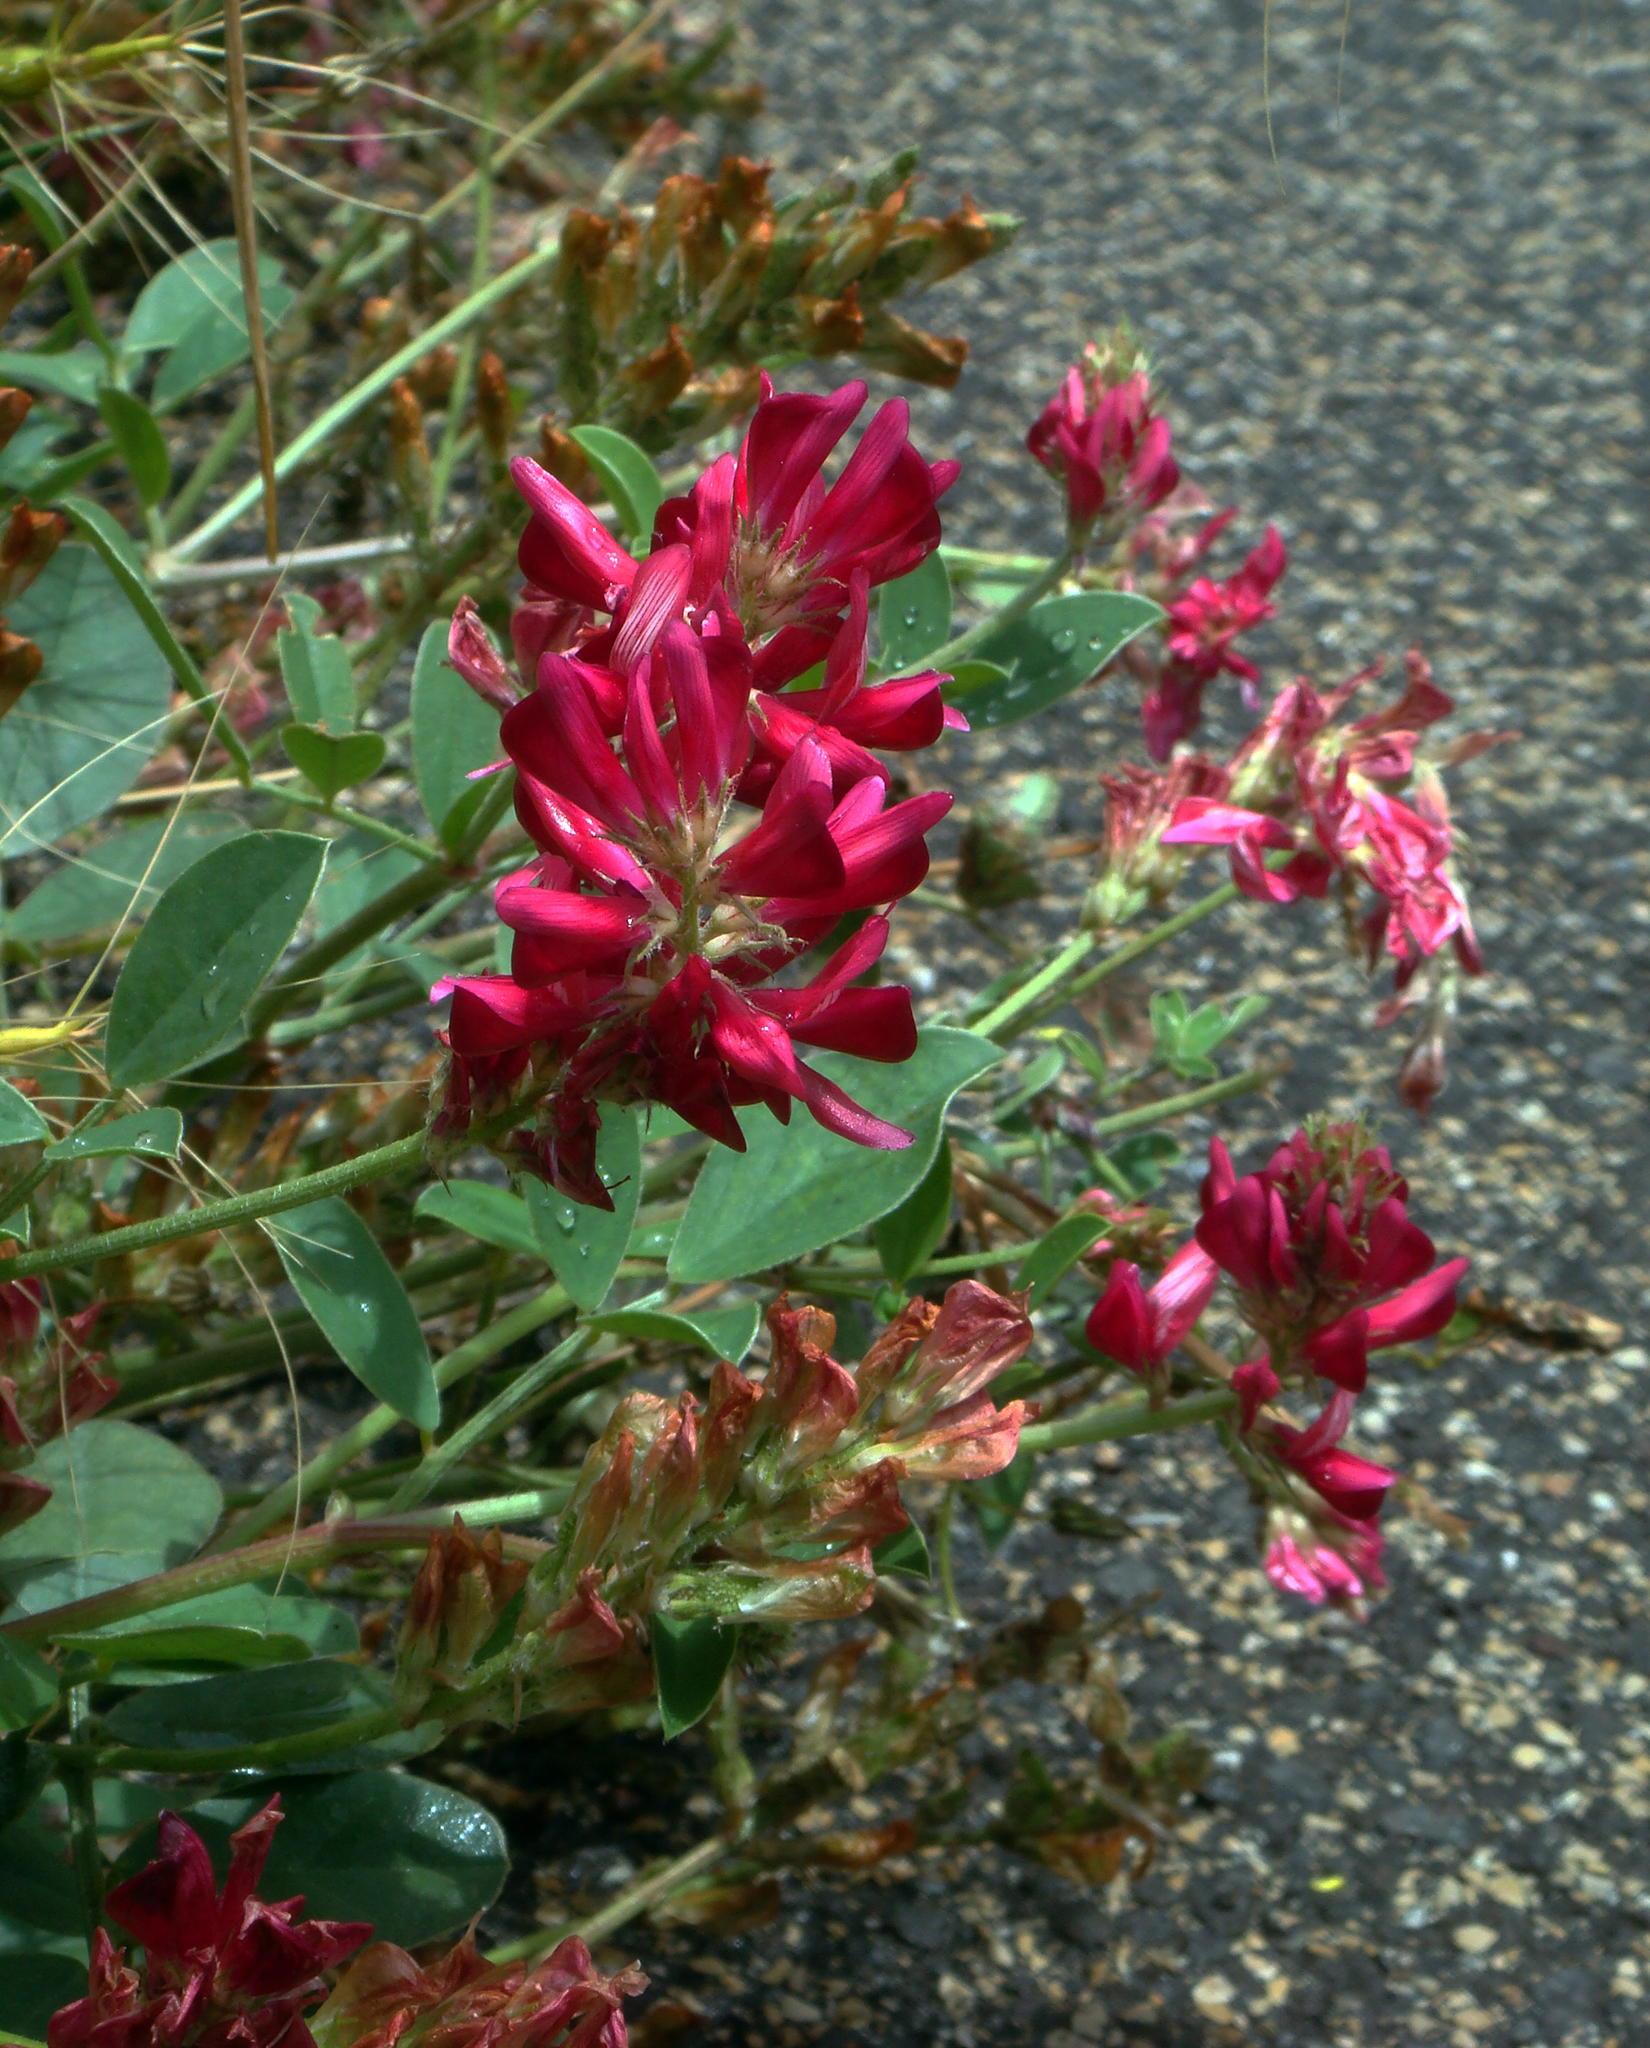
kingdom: Plantae
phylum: Tracheophyta
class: Magnoliopsida
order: Fabales
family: Fabaceae
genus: Sulla
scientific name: Sulla coronaria
